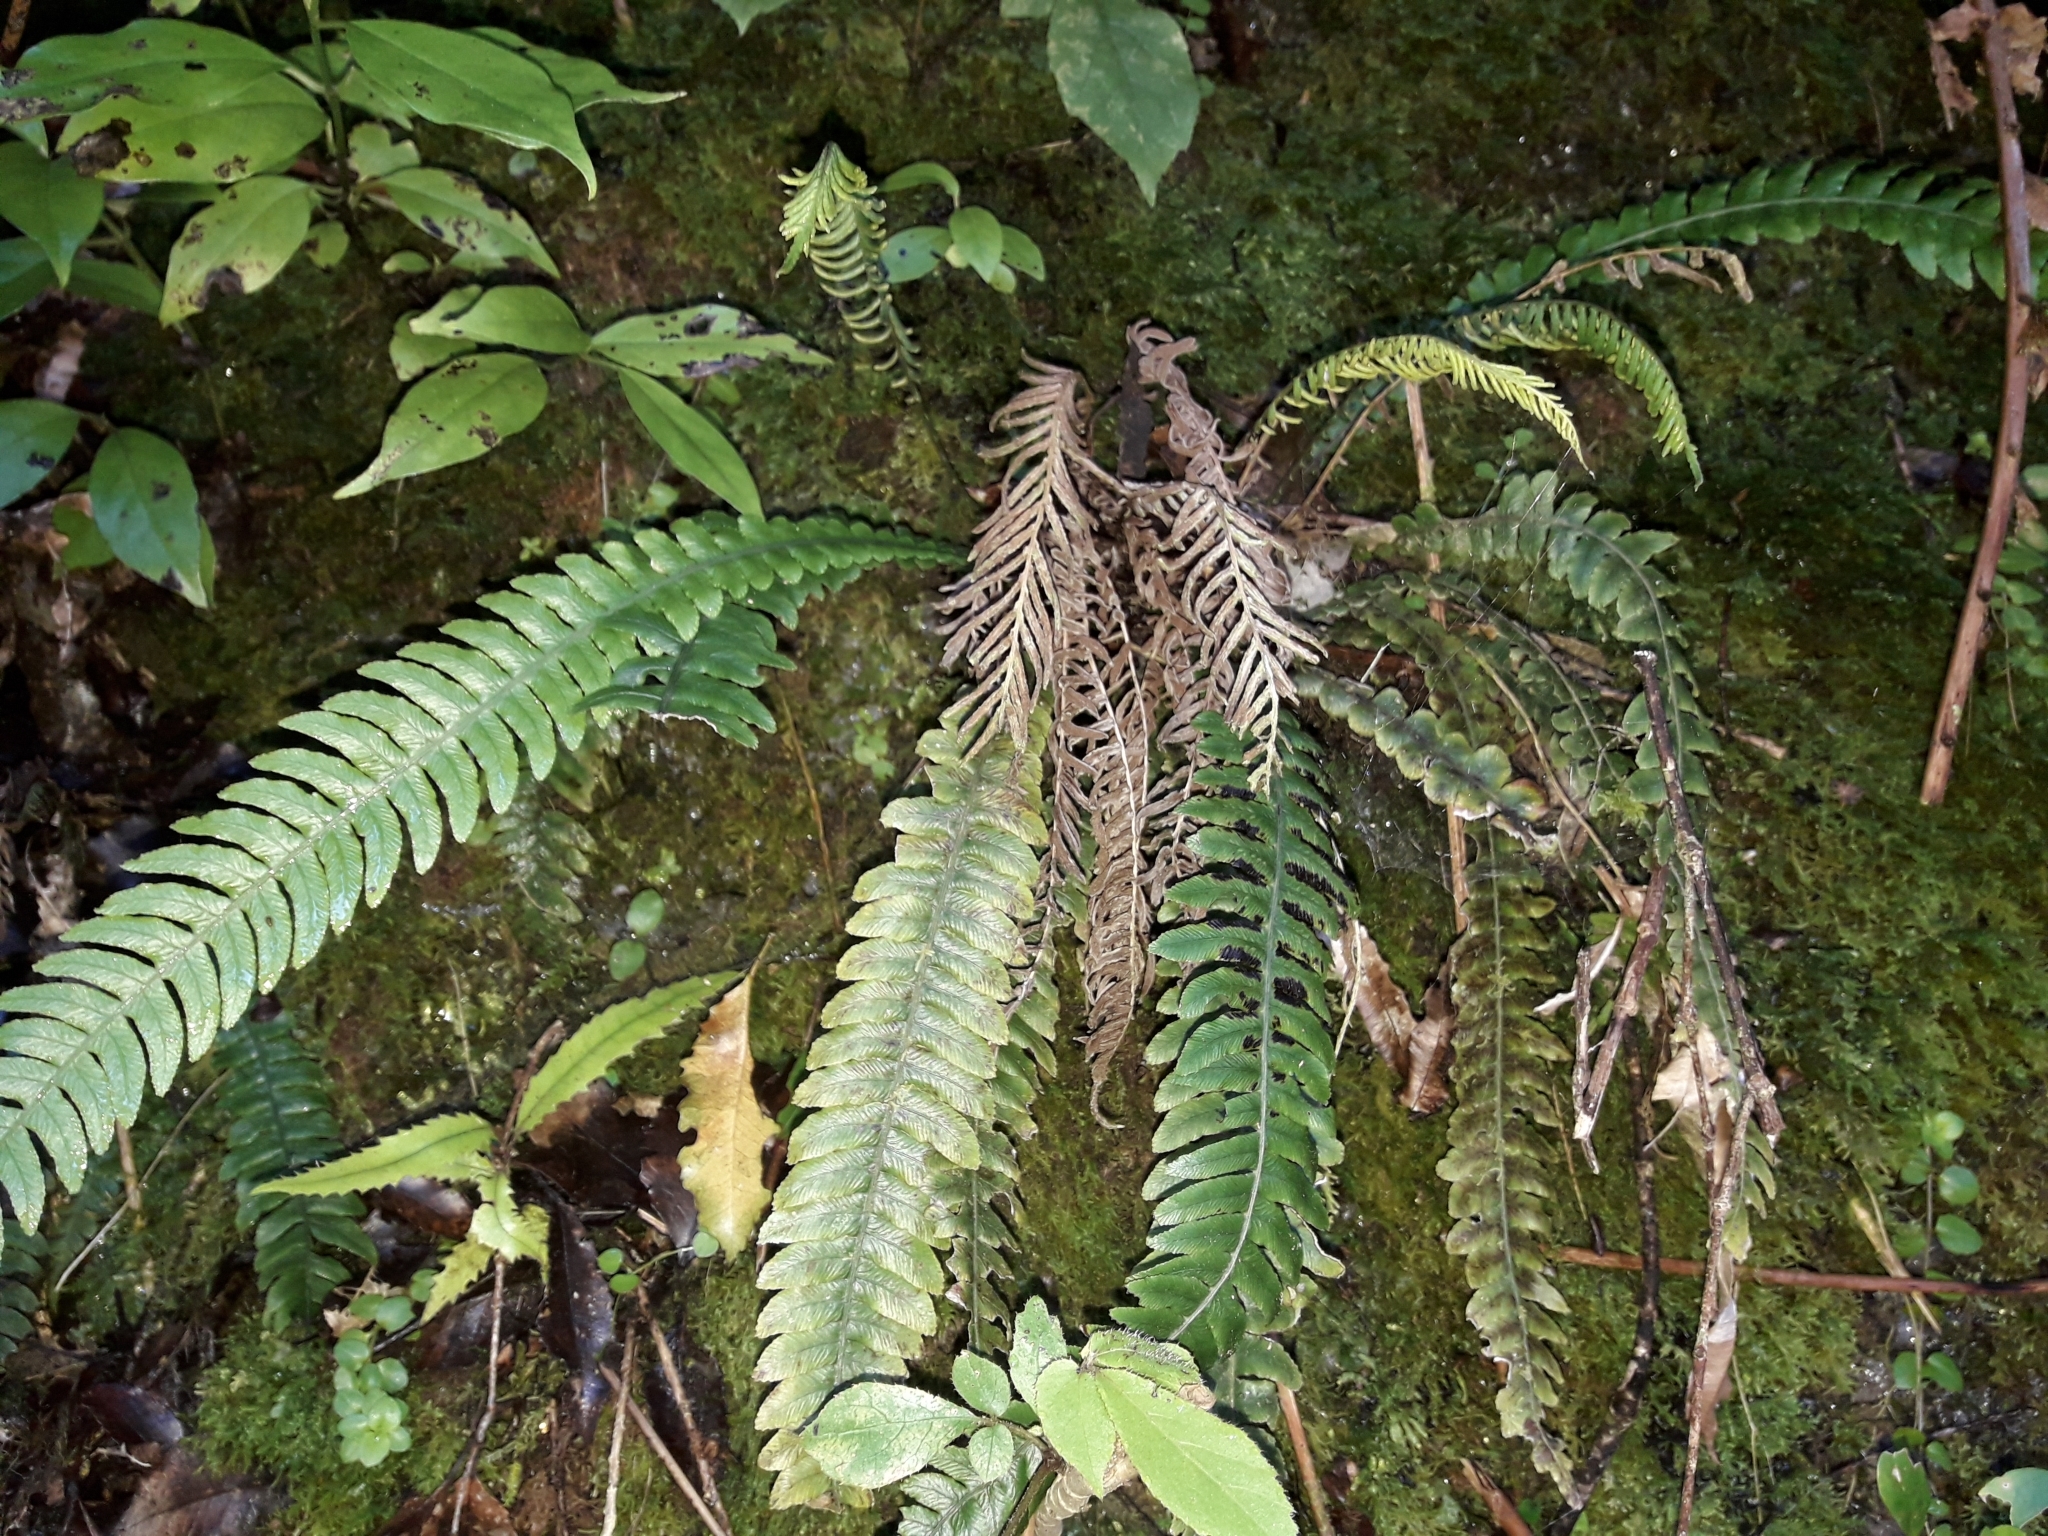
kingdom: Plantae
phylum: Tracheophyta
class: Polypodiopsida
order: Polypodiales
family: Blechnaceae
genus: Austroblechnum
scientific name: Austroblechnum lanceolatum
